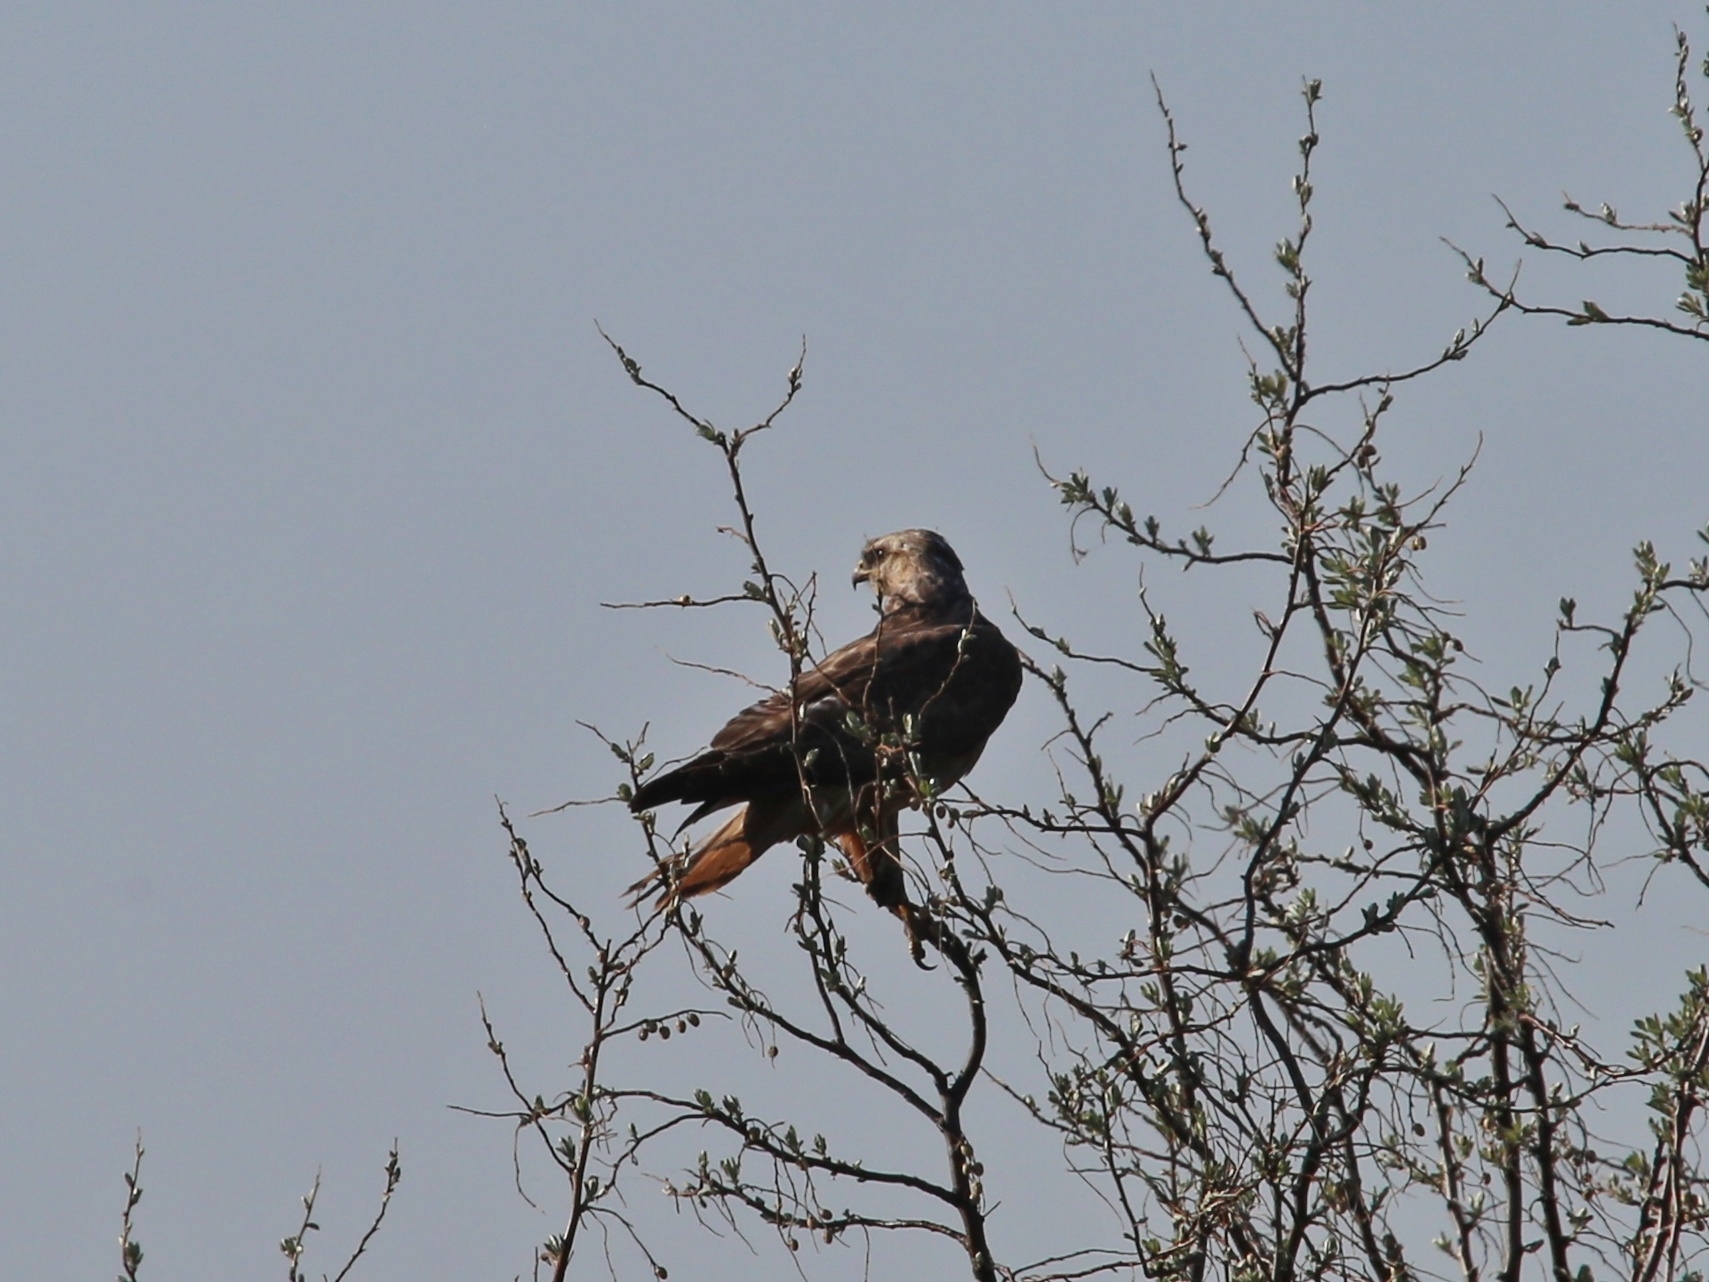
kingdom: Animalia
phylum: Chordata
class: Aves
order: Accipitriformes
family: Accipitridae
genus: Buteo
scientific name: Buteo buteo
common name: Common buzzard
